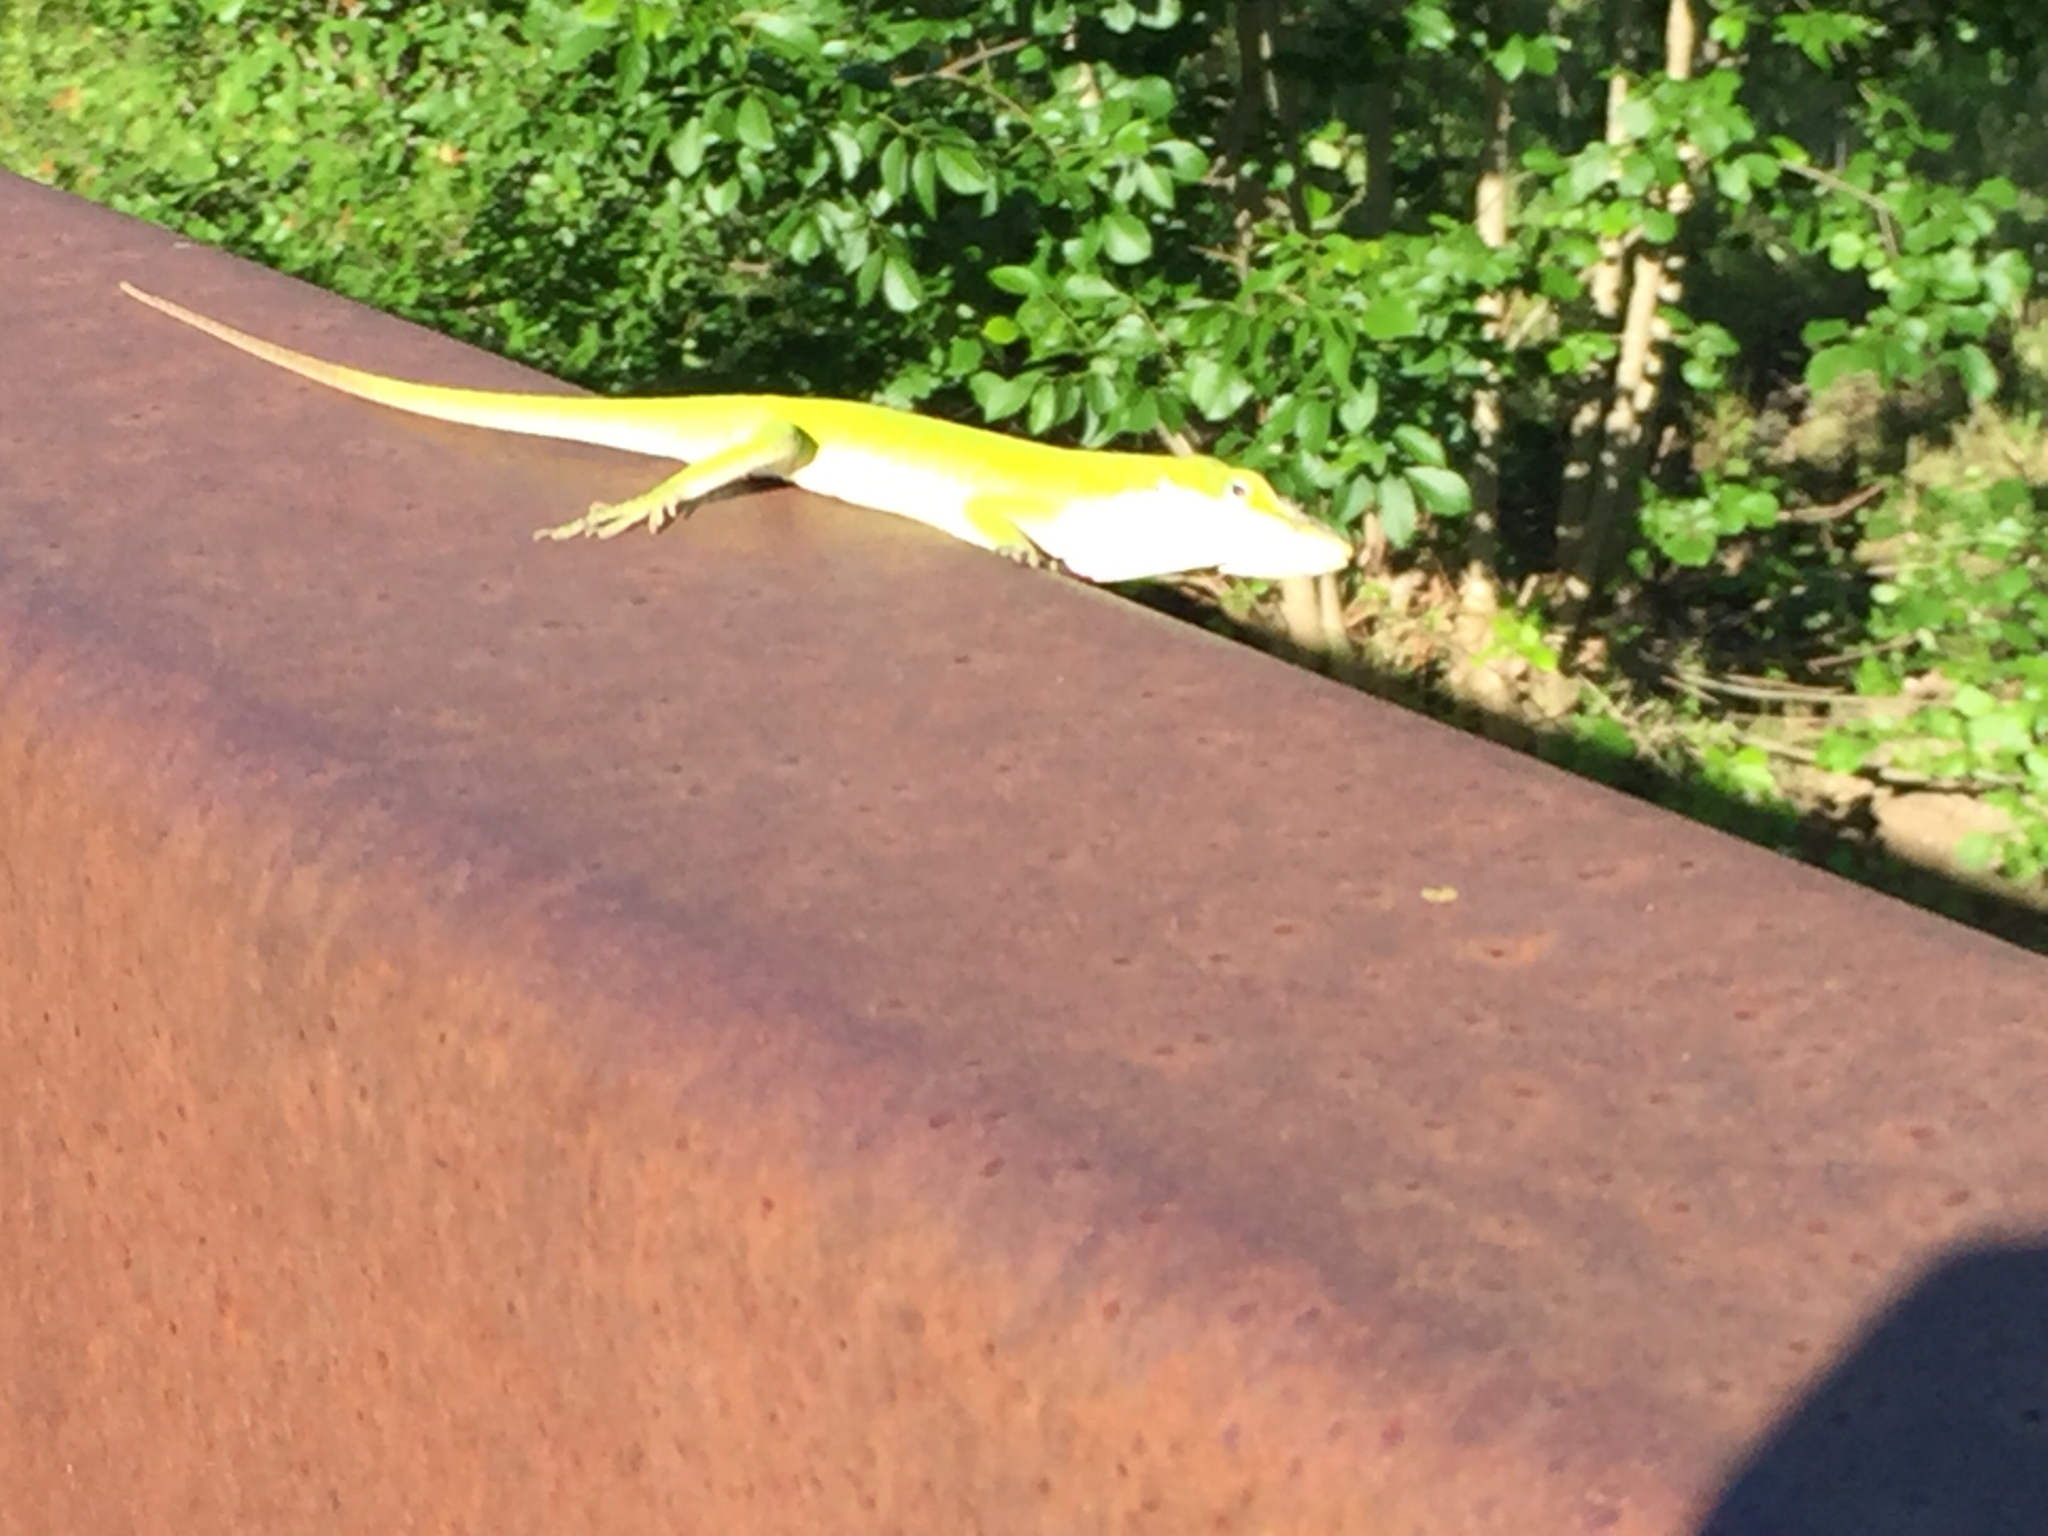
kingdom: Animalia
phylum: Chordata
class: Squamata
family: Dactyloidae
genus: Anolis
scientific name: Anolis carolinensis
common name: Green anole
